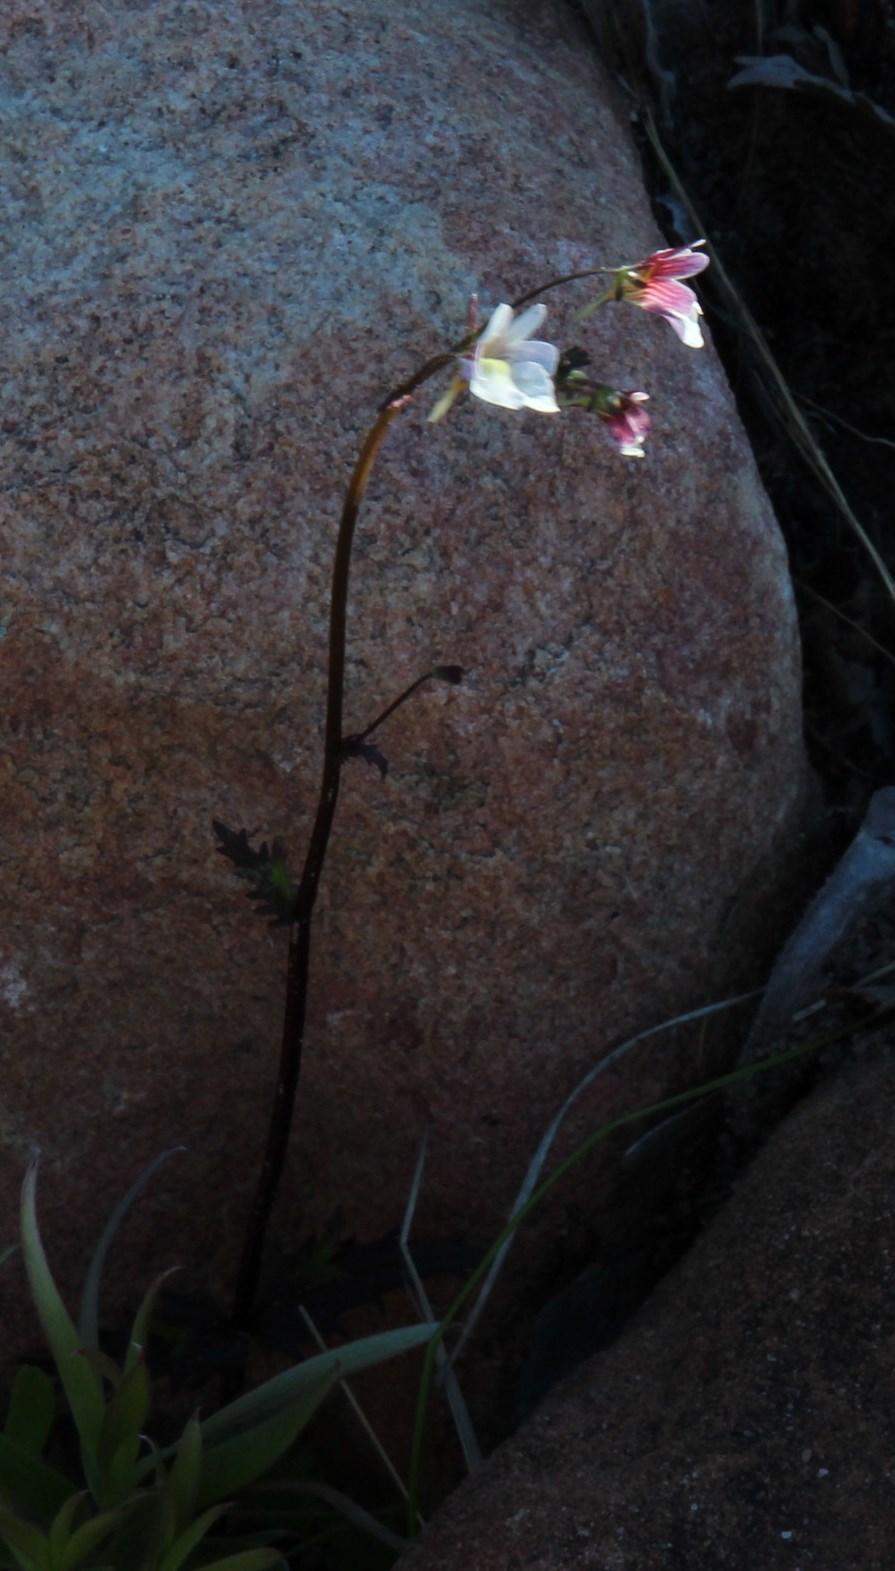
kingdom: Plantae
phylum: Tracheophyta
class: Magnoliopsida
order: Lamiales
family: Scrophulariaceae
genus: Nemesia
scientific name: Nemesia affinis
